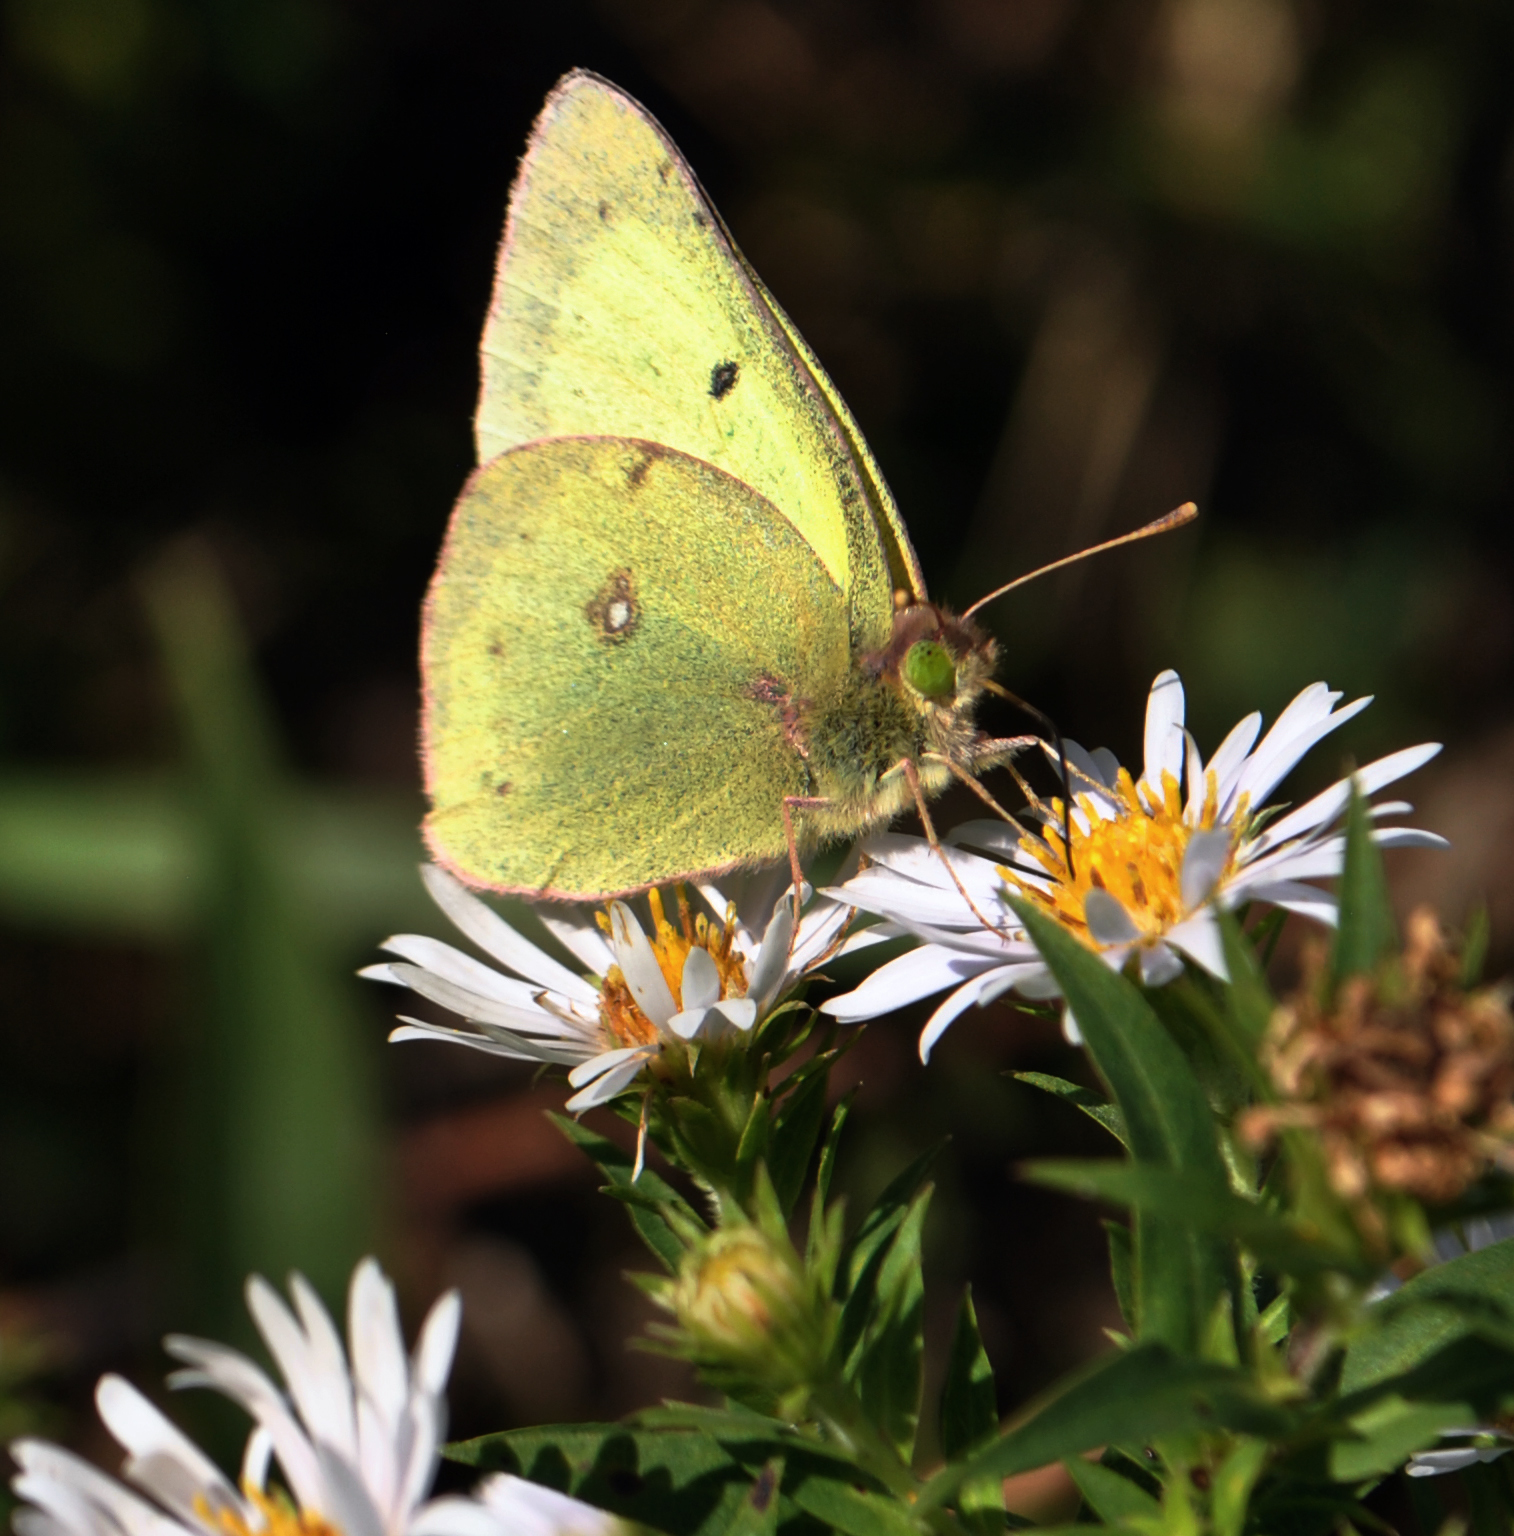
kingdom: Animalia
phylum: Arthropoda
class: Insecta
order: Lepidoptera
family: Pieridae
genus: Colias
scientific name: Colias philodice
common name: Clouded sulphur
